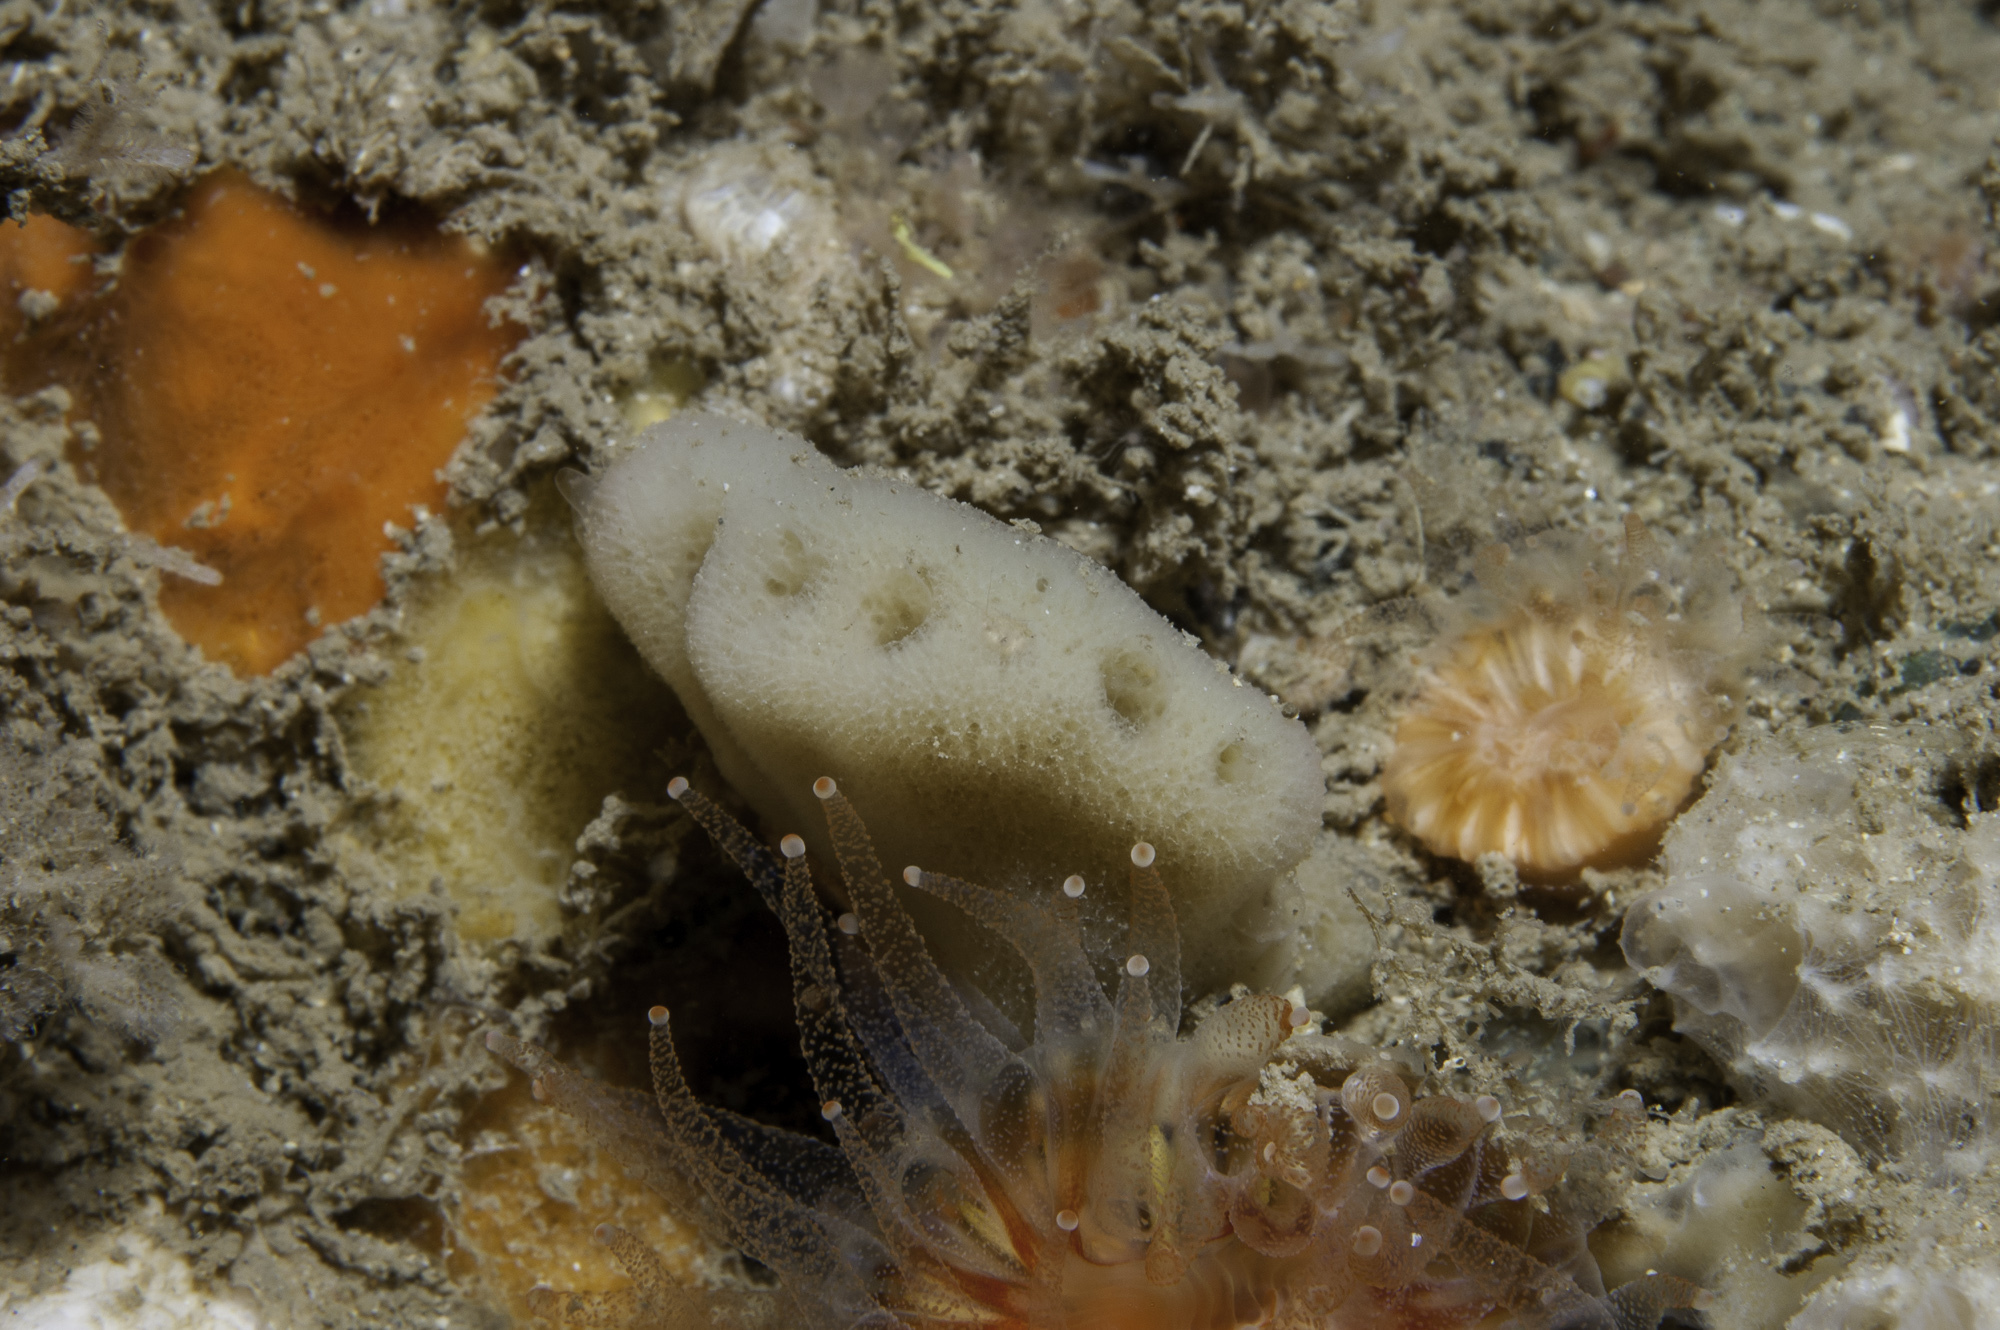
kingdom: Animalia
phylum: Porifera
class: Demospongiae
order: Dendroceratida
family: Dictyodendrillidae
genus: Spongionella
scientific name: Spongionella pulchella
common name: Gorgeous horny sponge
